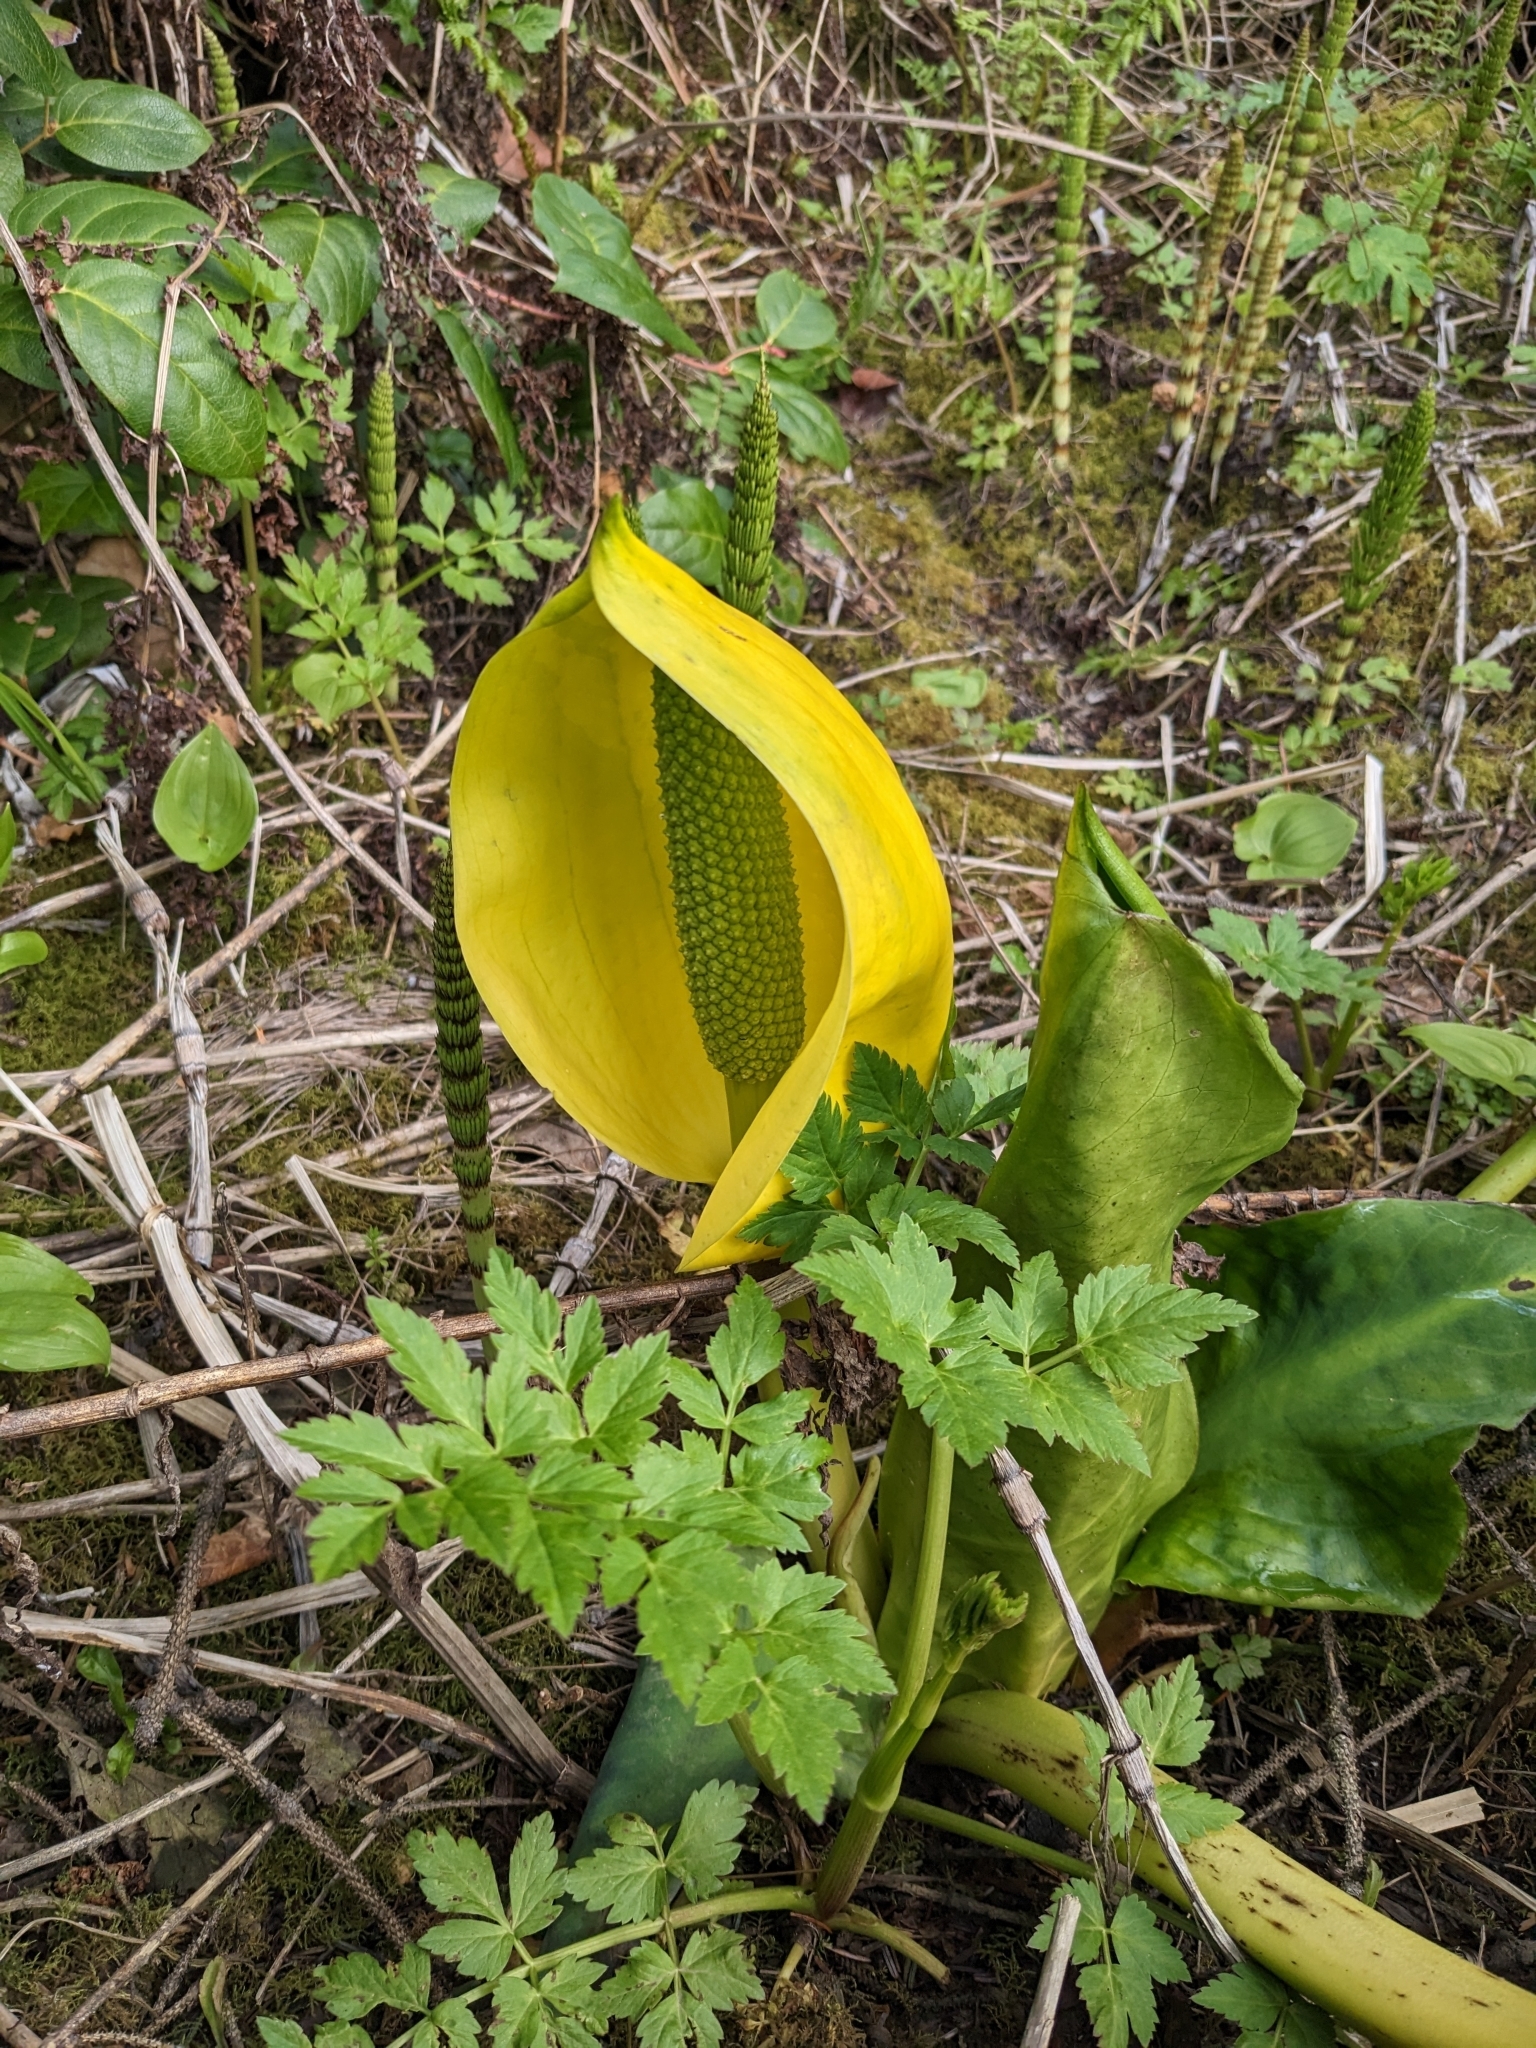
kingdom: Plantae
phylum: Tracheophyta
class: Liliopsida
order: Alismatales
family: Araceae
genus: Lysichiton
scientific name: Lysichiton americanus
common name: American skunk cabbage
